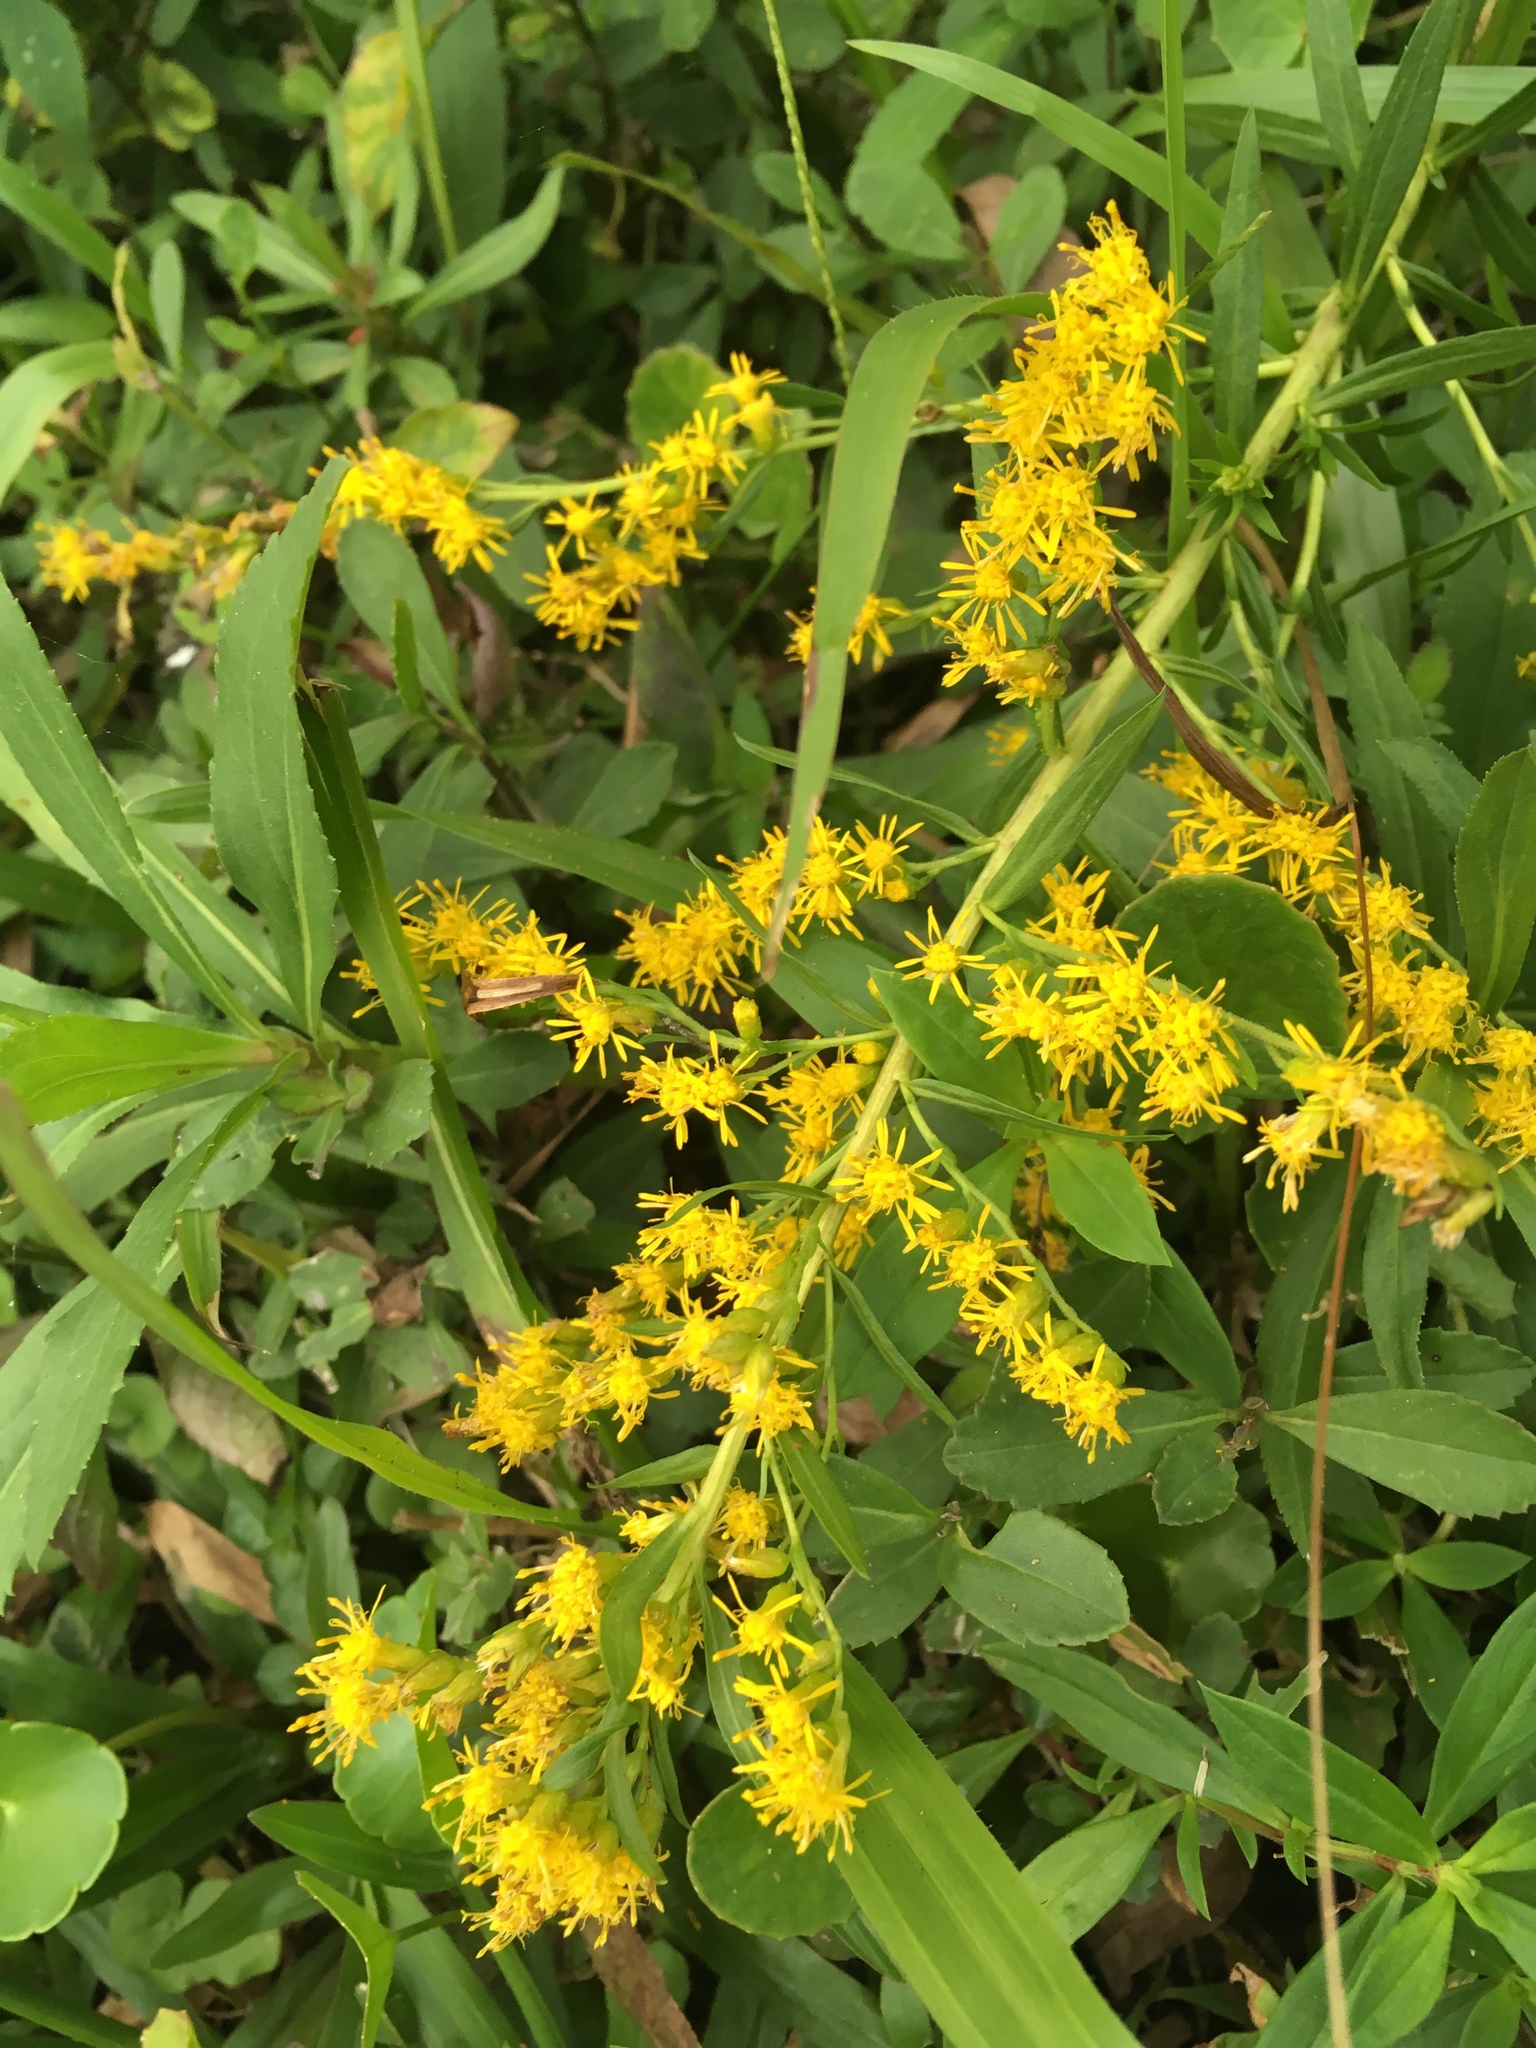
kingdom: Plantae
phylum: Tracheophyta
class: Magnoliopsida
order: Asterales
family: Asteraceae
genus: Solidago
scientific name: Solidago leavenworthii
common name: Leavenworth's goldenrod
